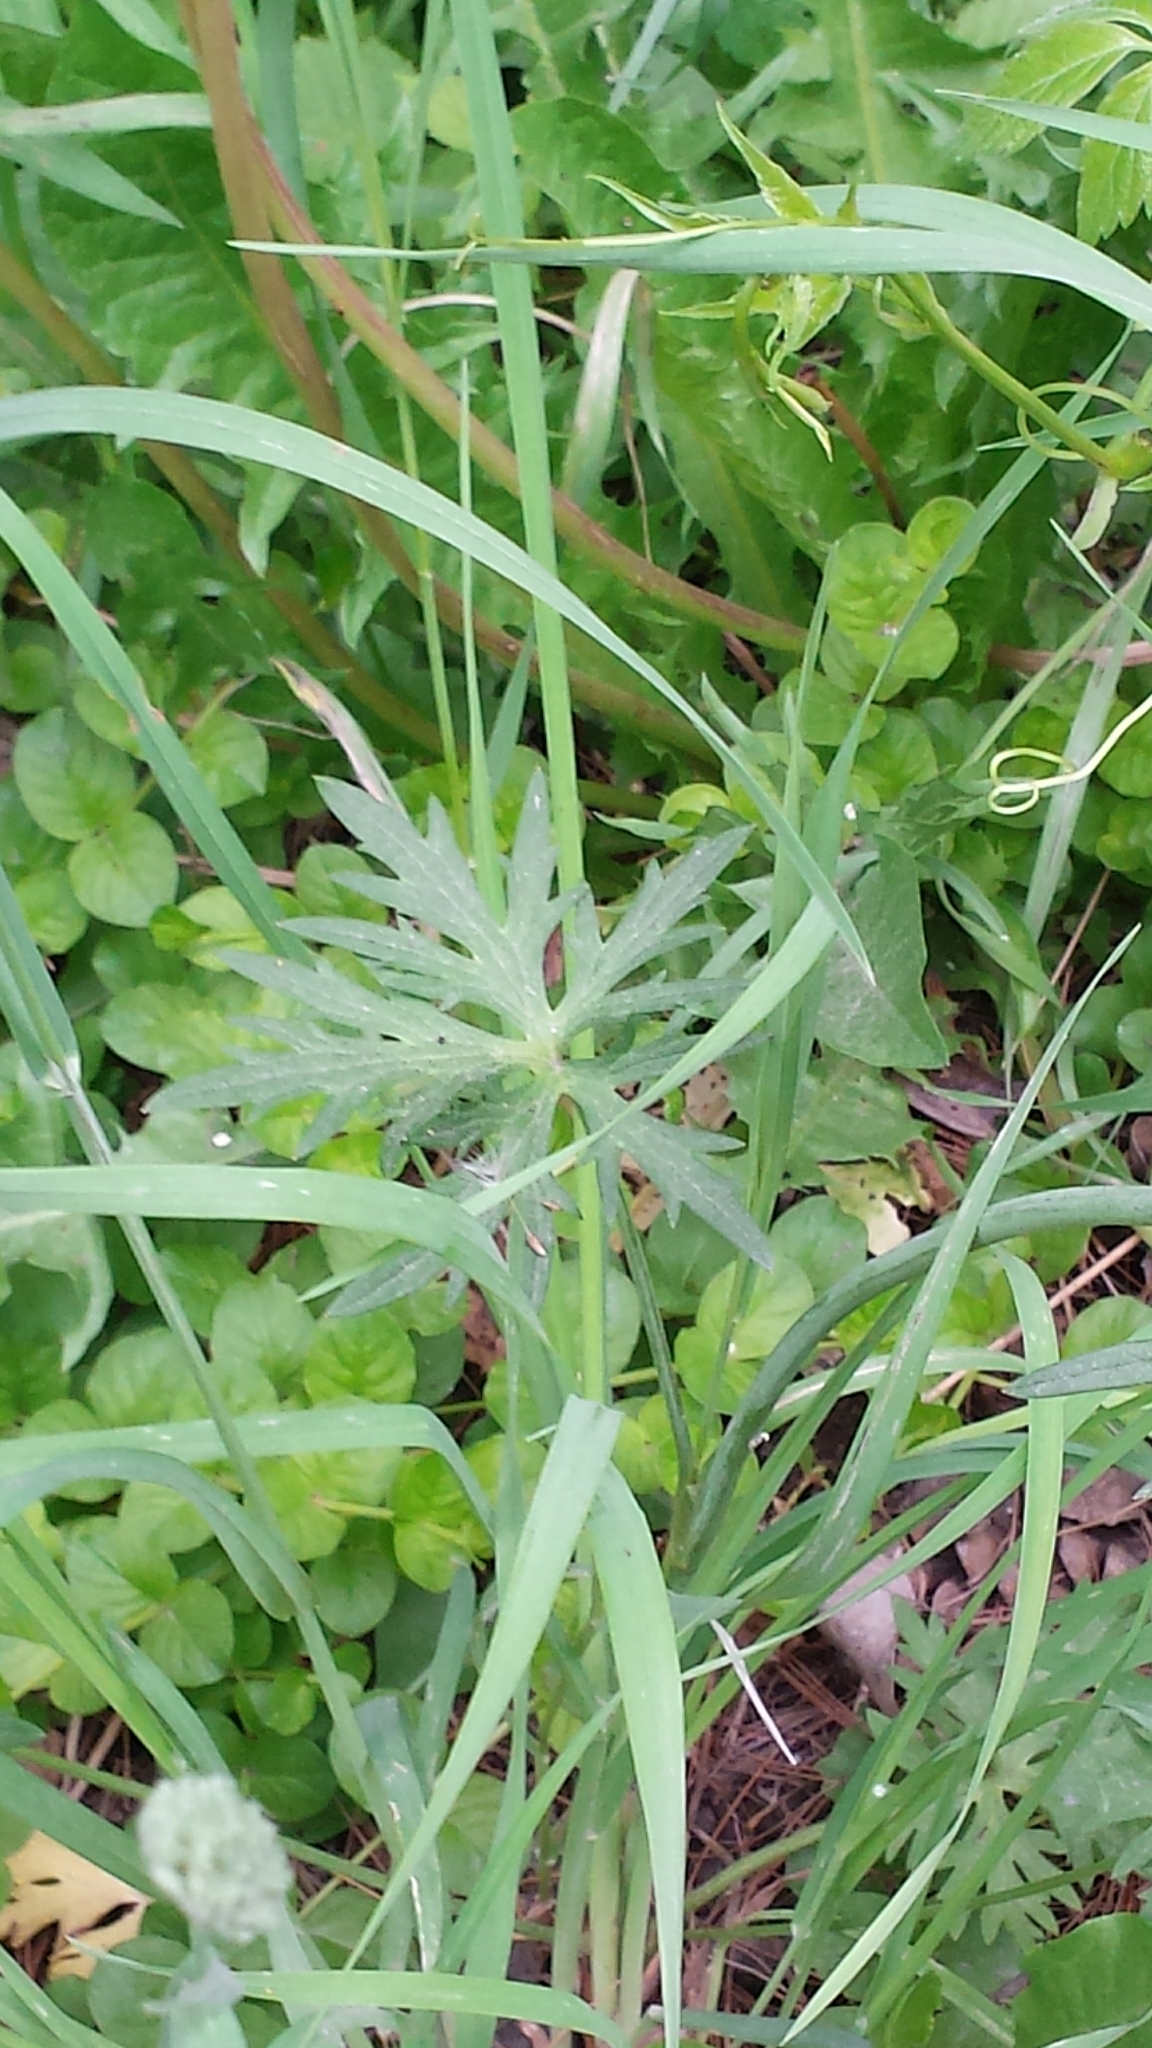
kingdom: Plantae
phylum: Tracheophyta
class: Magnoliopsida
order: Ranunculales
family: Ranunculaceae
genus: Ranunculus
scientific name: Ranunculus acris
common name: Meadow buttercup
